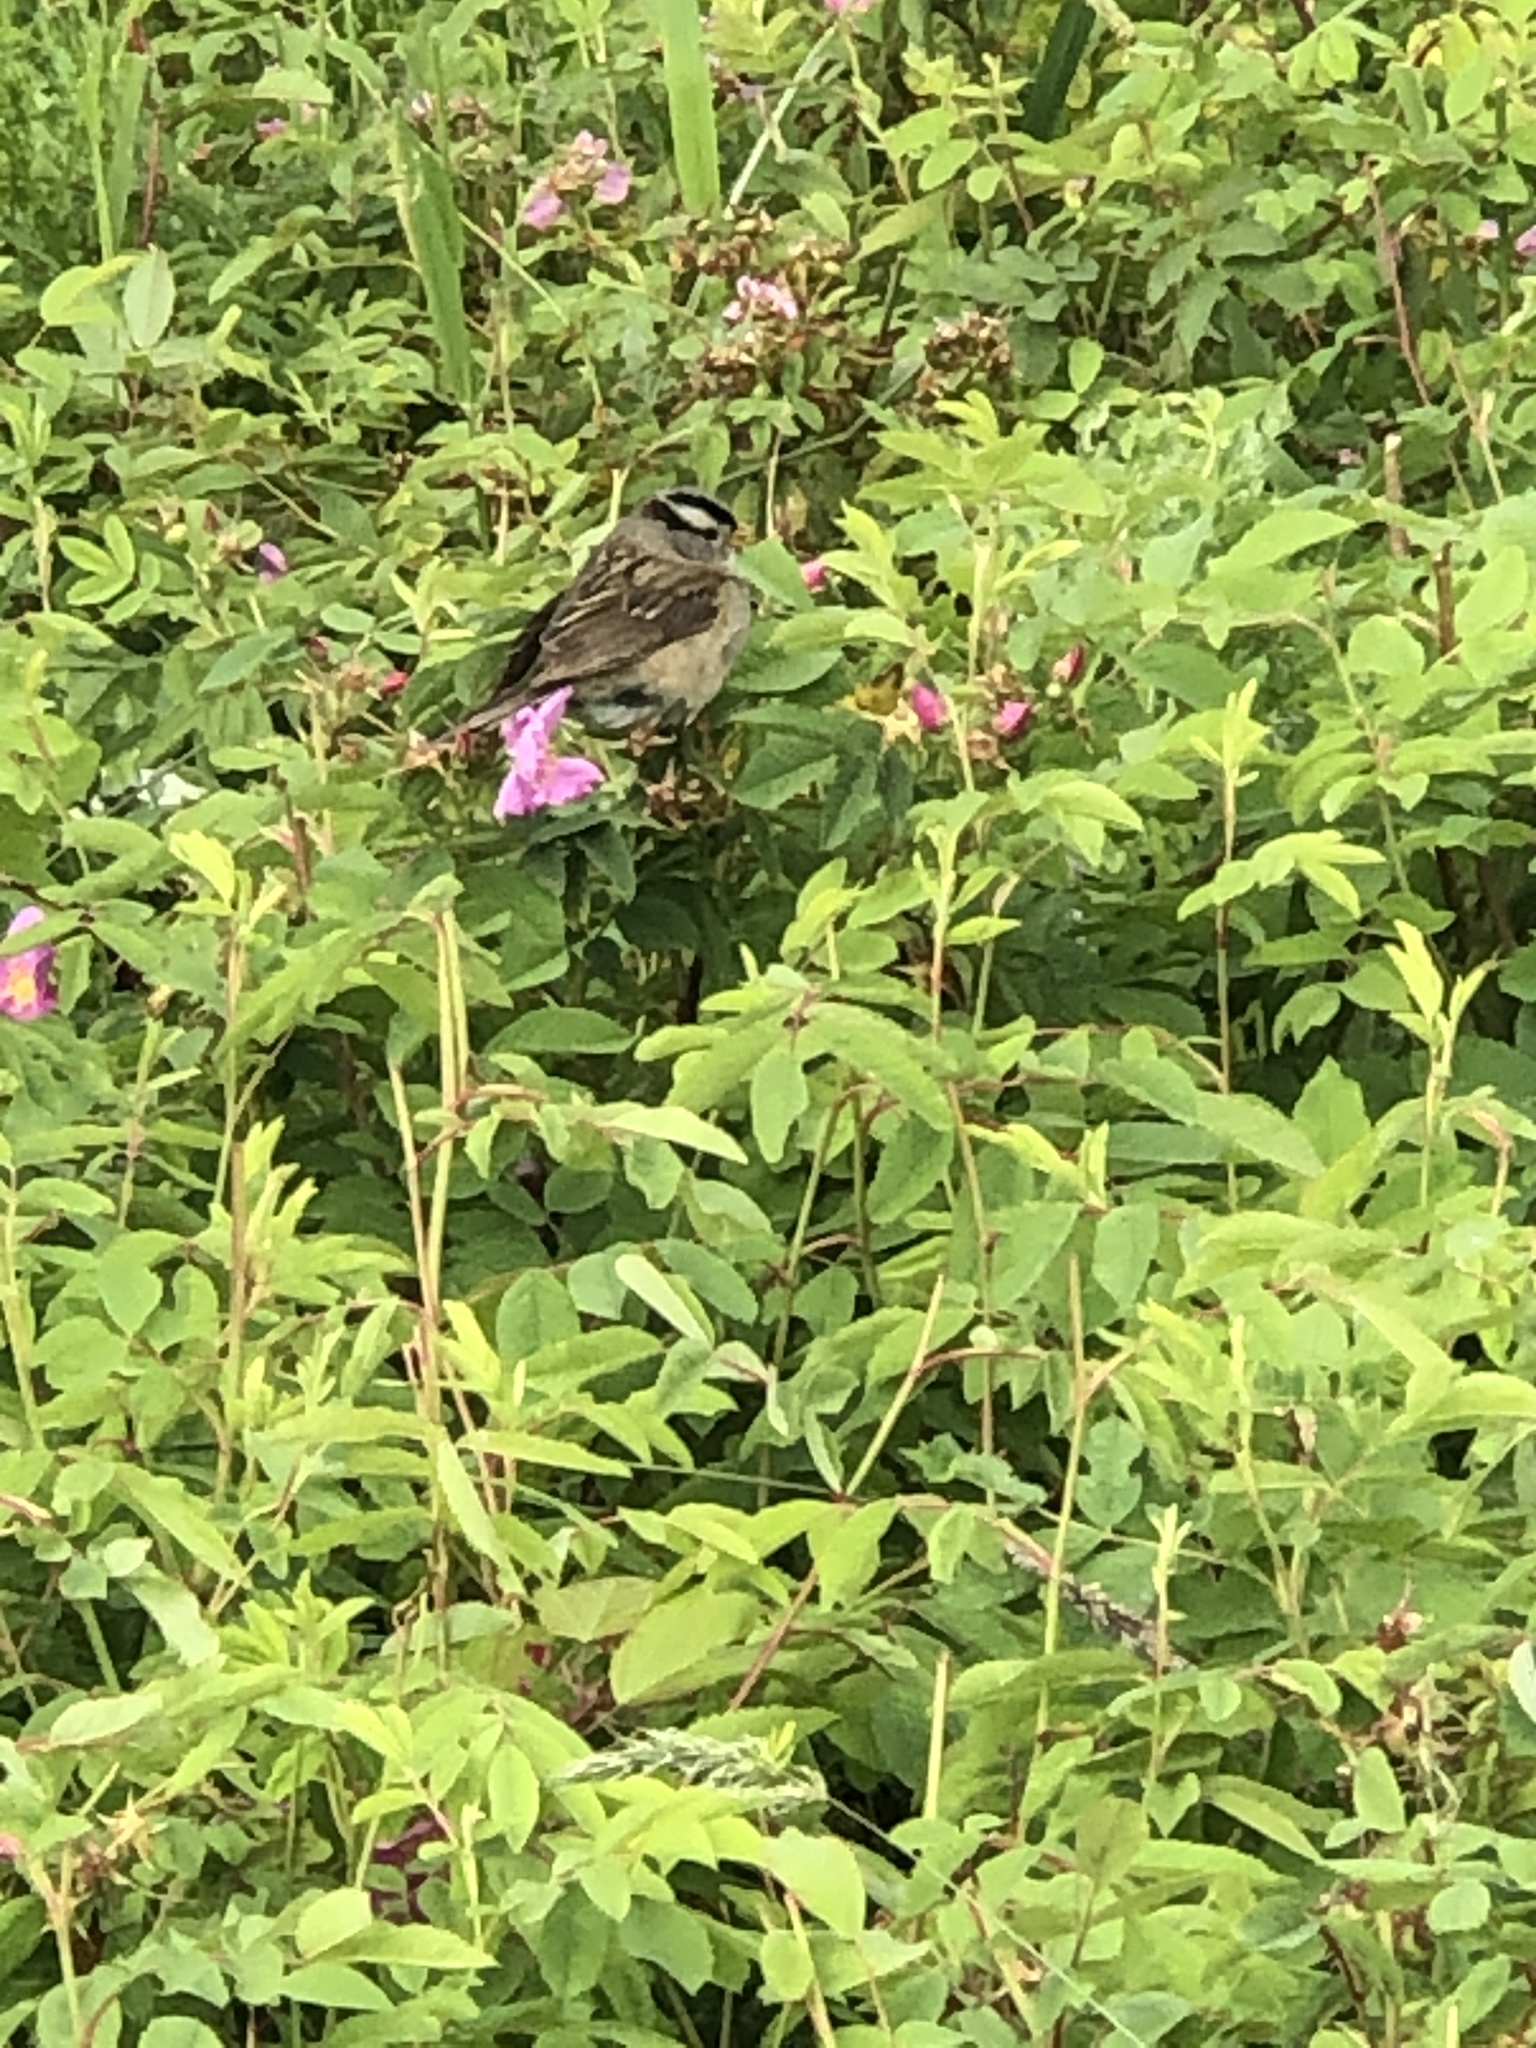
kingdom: Animalia
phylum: Chordata
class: Aves
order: Passeriformes
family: Passerellidae
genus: Zonotrichia
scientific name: Zonotrichia leucophrys
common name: White-crowned sparrow
